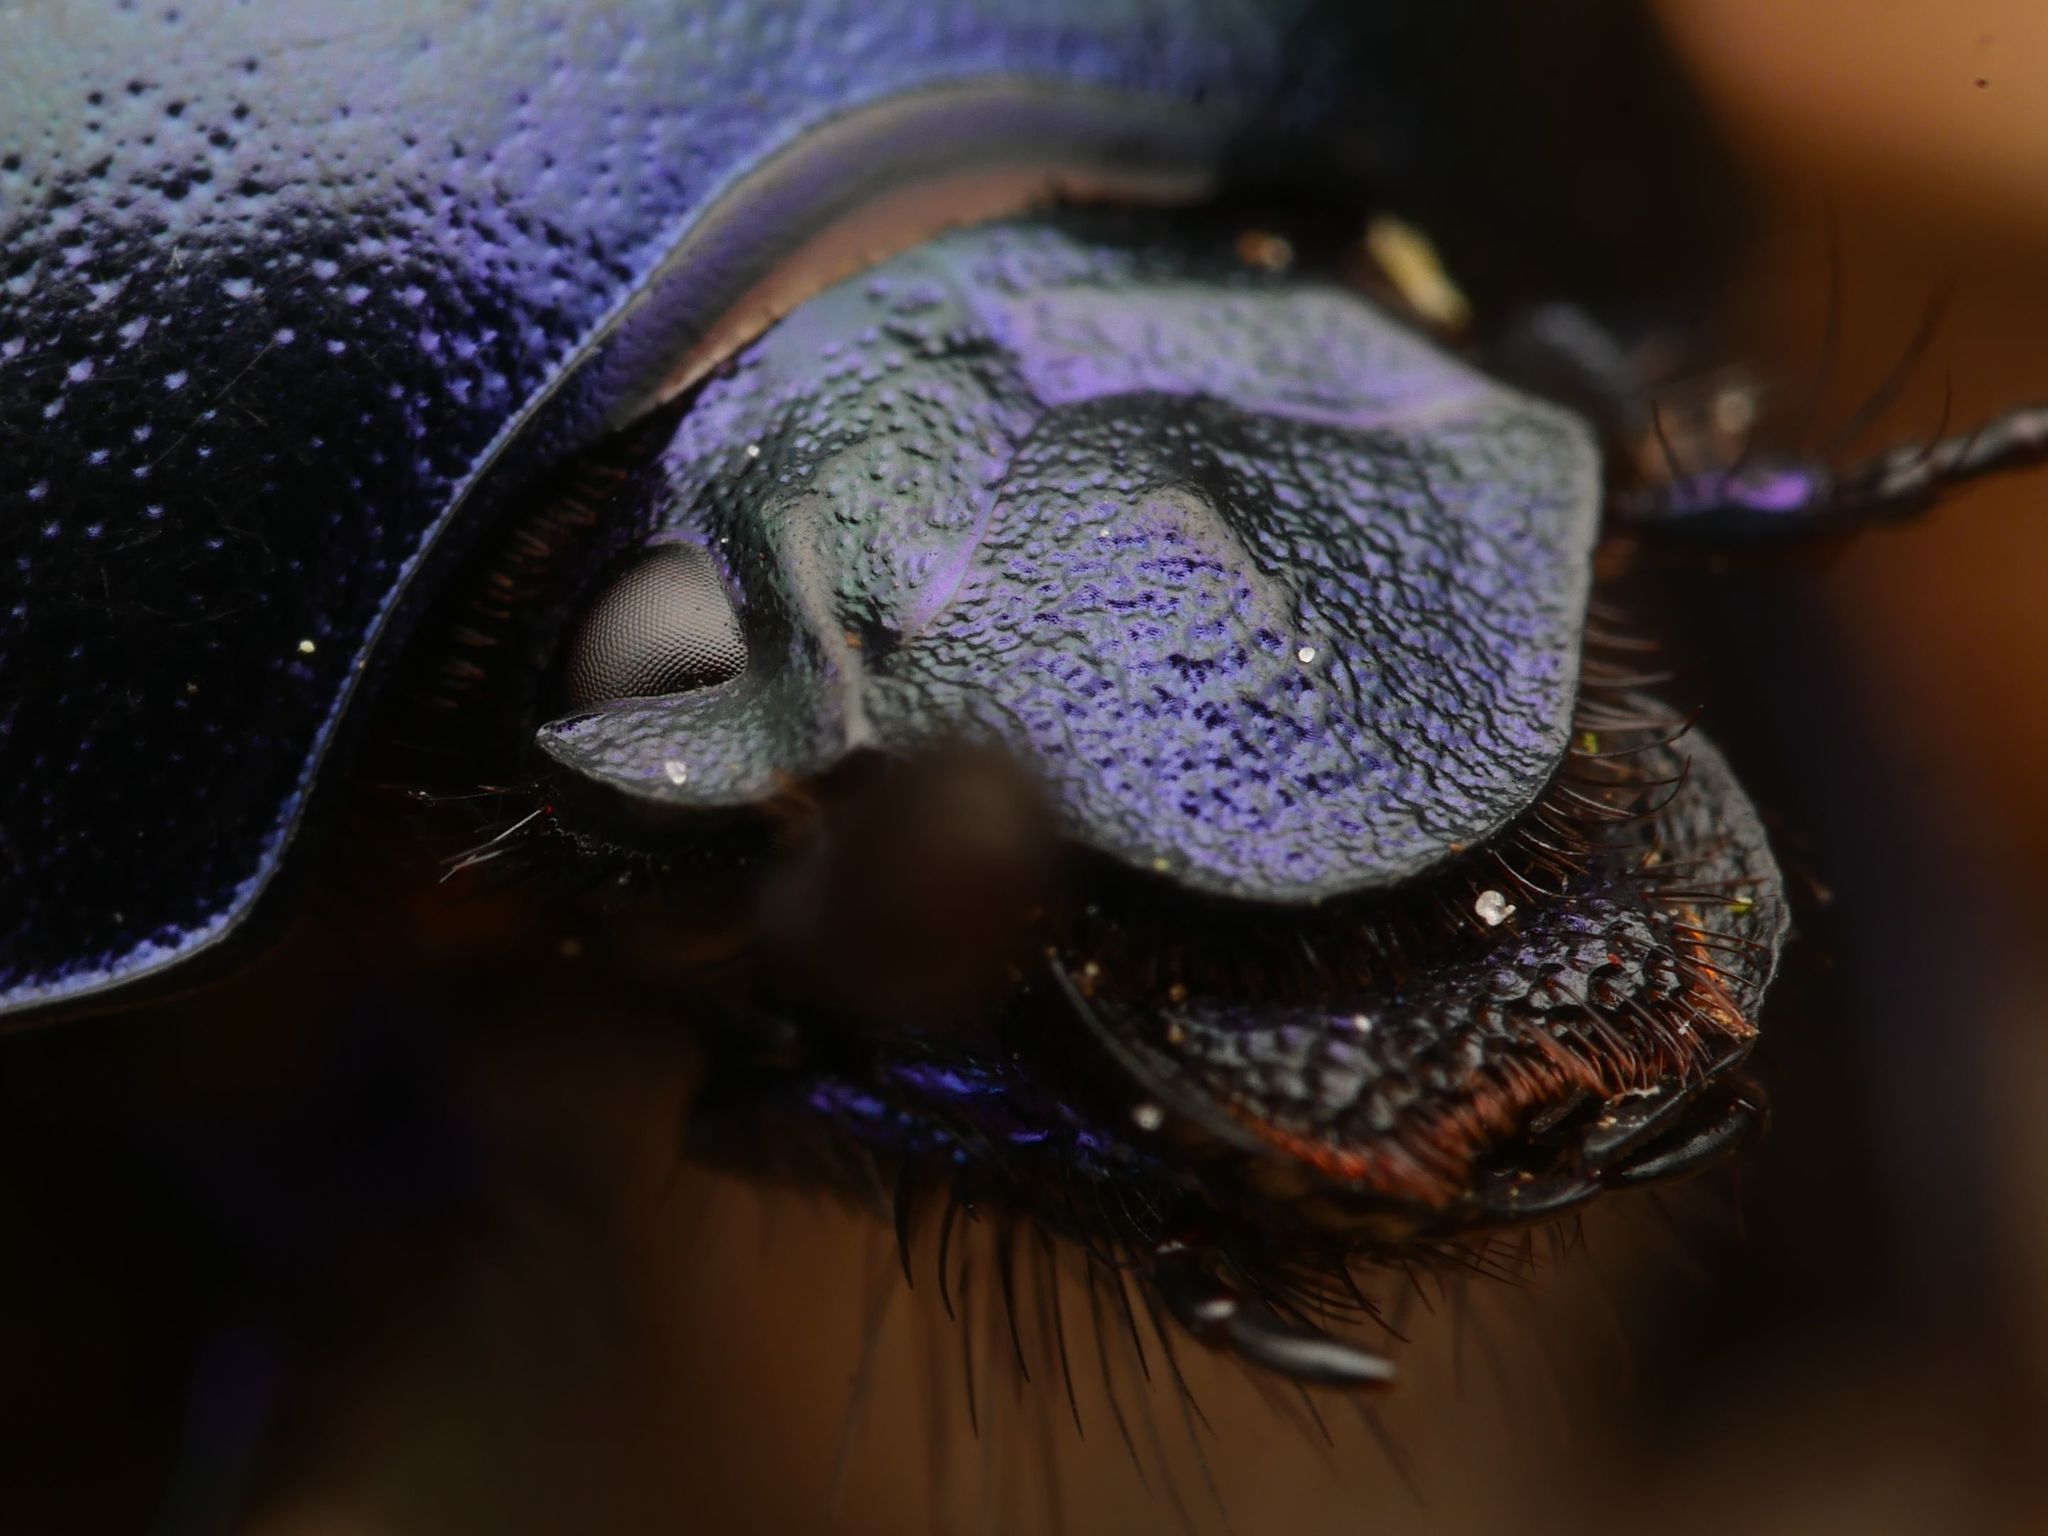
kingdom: Animalia
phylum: Arthropoda
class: Insecta
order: Coleoptera
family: Geotrupidae
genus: Trypocopris
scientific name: Trypocopris vernalis
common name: Spring dumbledor
